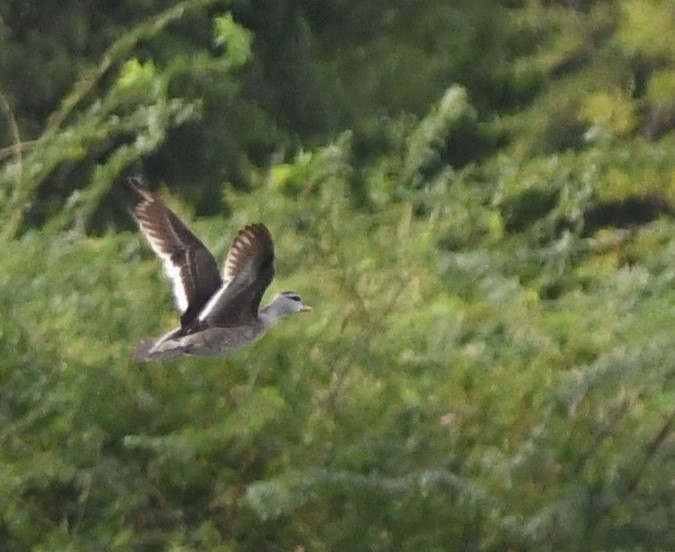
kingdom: Animalia
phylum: Chordata
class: Aves
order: Anseriformes
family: Anatidae
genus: Nettapus
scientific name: Nettapus coromandelianus
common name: Cotton pygmy-goose
